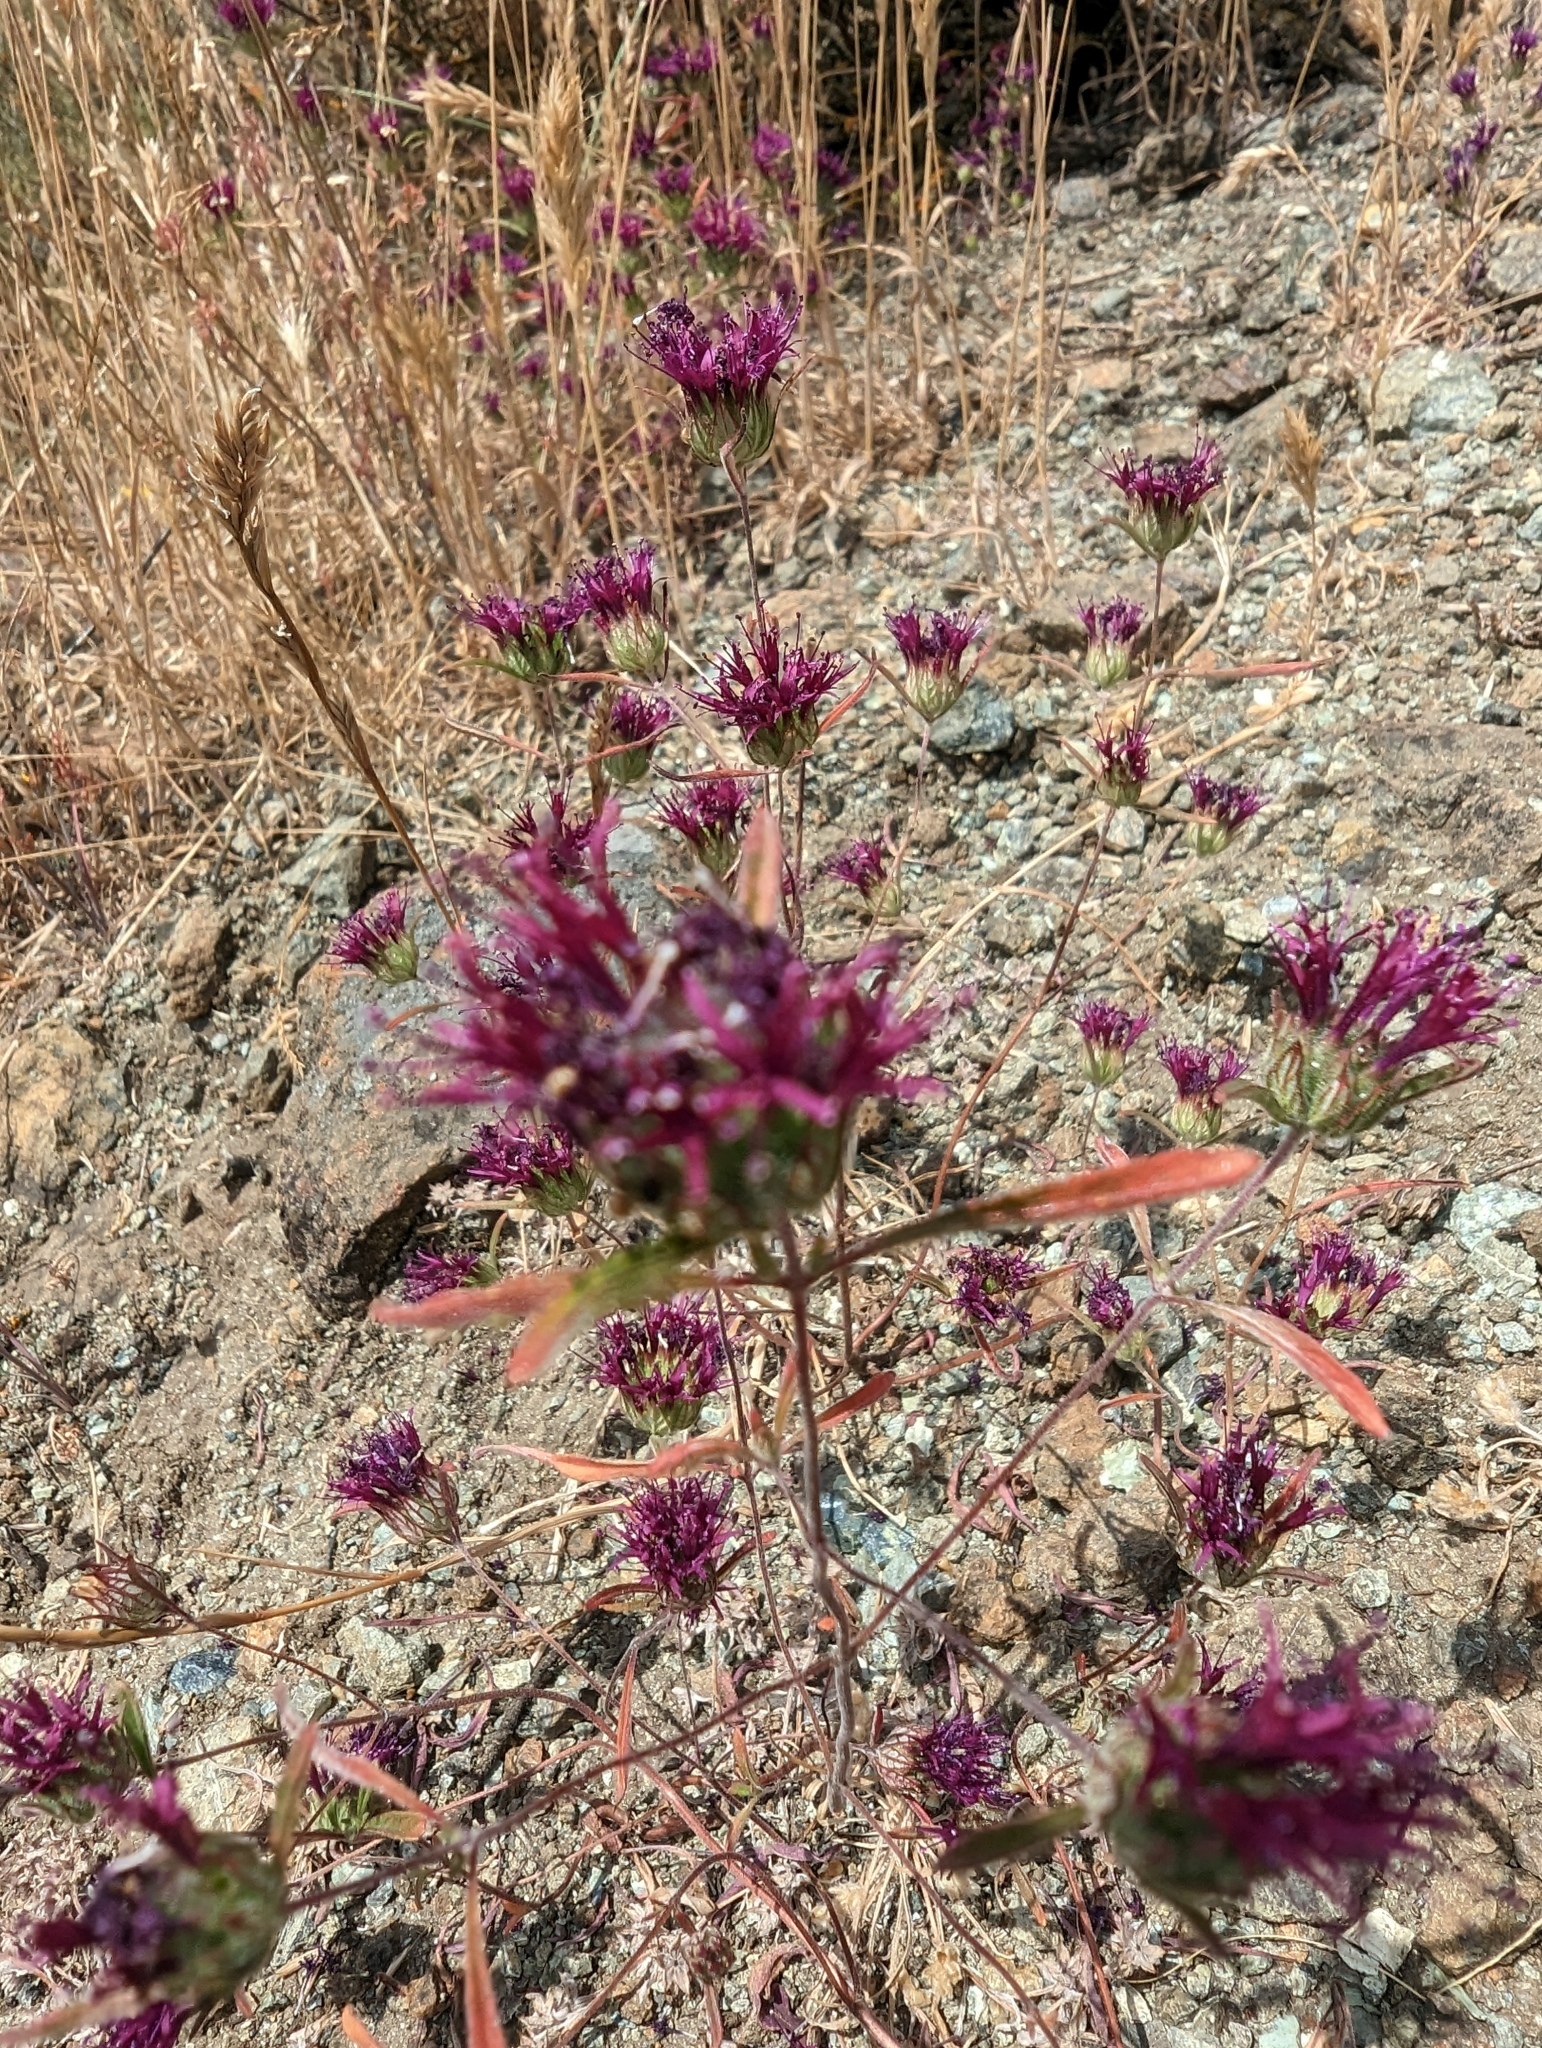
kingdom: Plantae
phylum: Tracheophyta
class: Magnoliopsida
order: Lamiales
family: Lamiaceae
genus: Monardella
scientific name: Monardella douglasii
